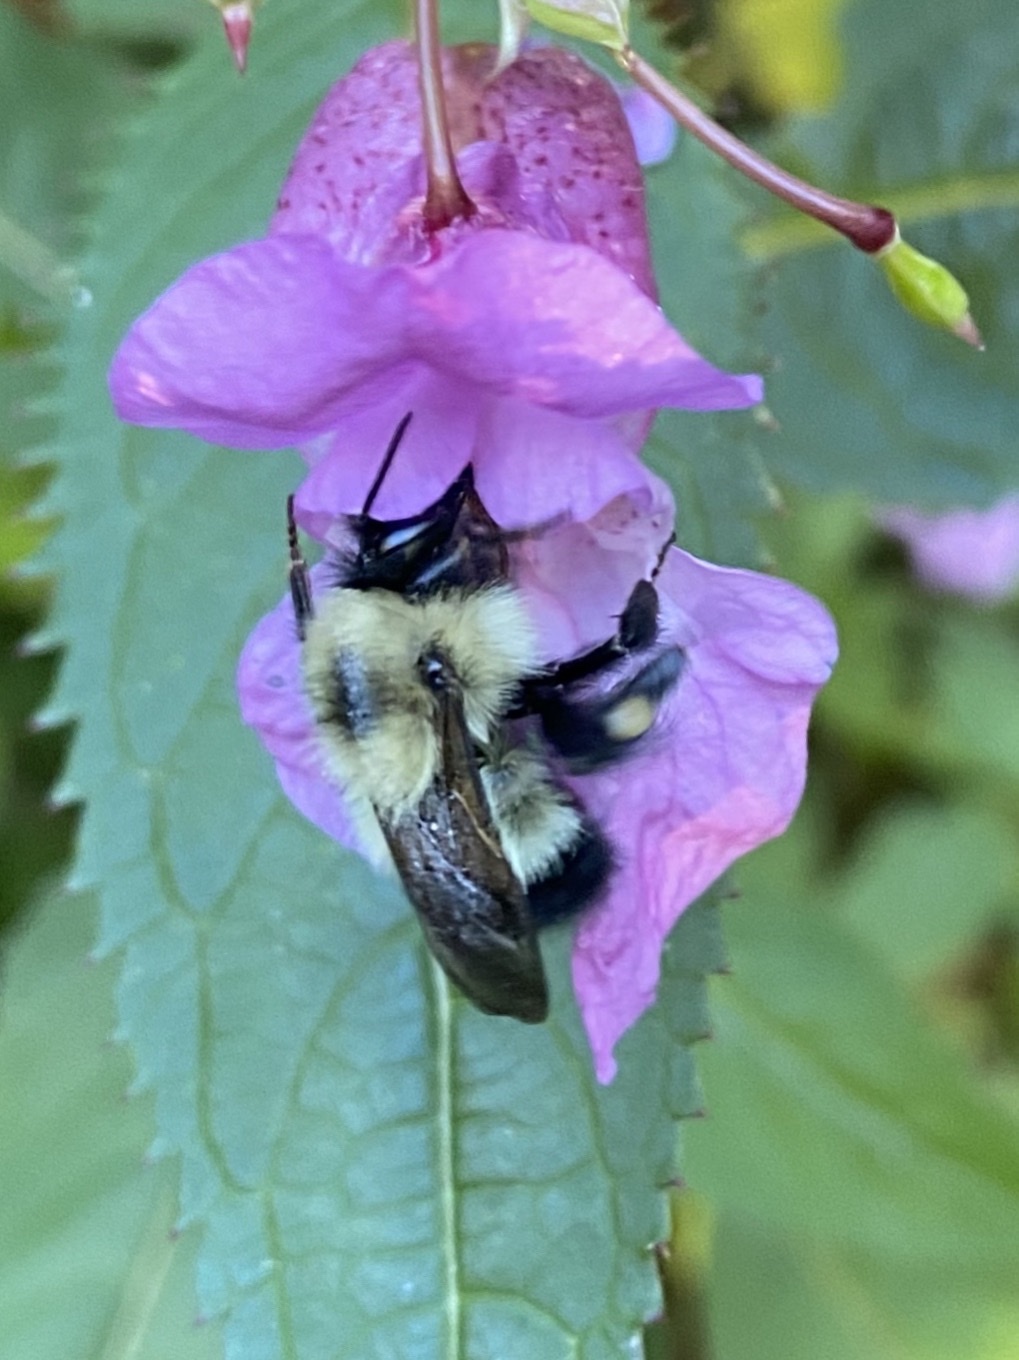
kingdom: Animalia
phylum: Arthropoda
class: Insecta
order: Hymenoptera
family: Apidae
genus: Pyrobombus
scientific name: Pyrobombus
